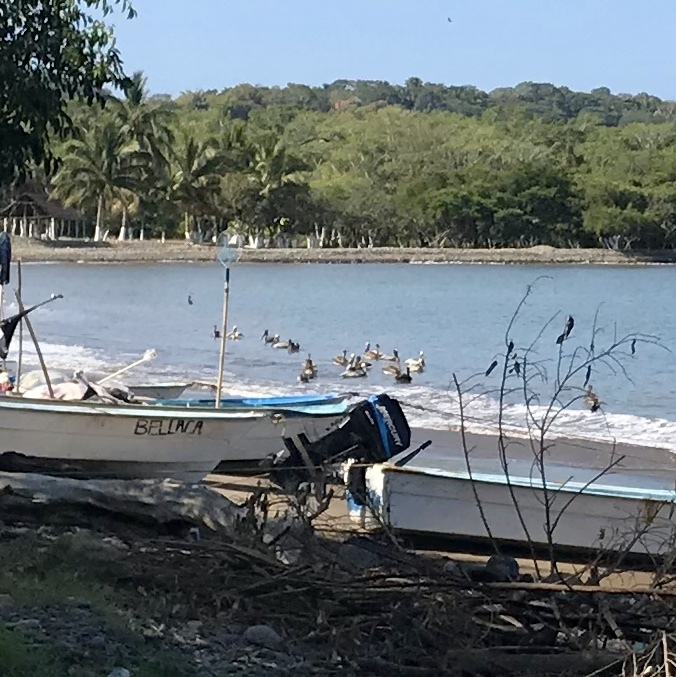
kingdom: Animalia
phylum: Chordata
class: Aves
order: Pelecaniformes
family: Pelecanidae
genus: Pelecanus
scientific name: Pelecanus occidentalis
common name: Brown pelican
